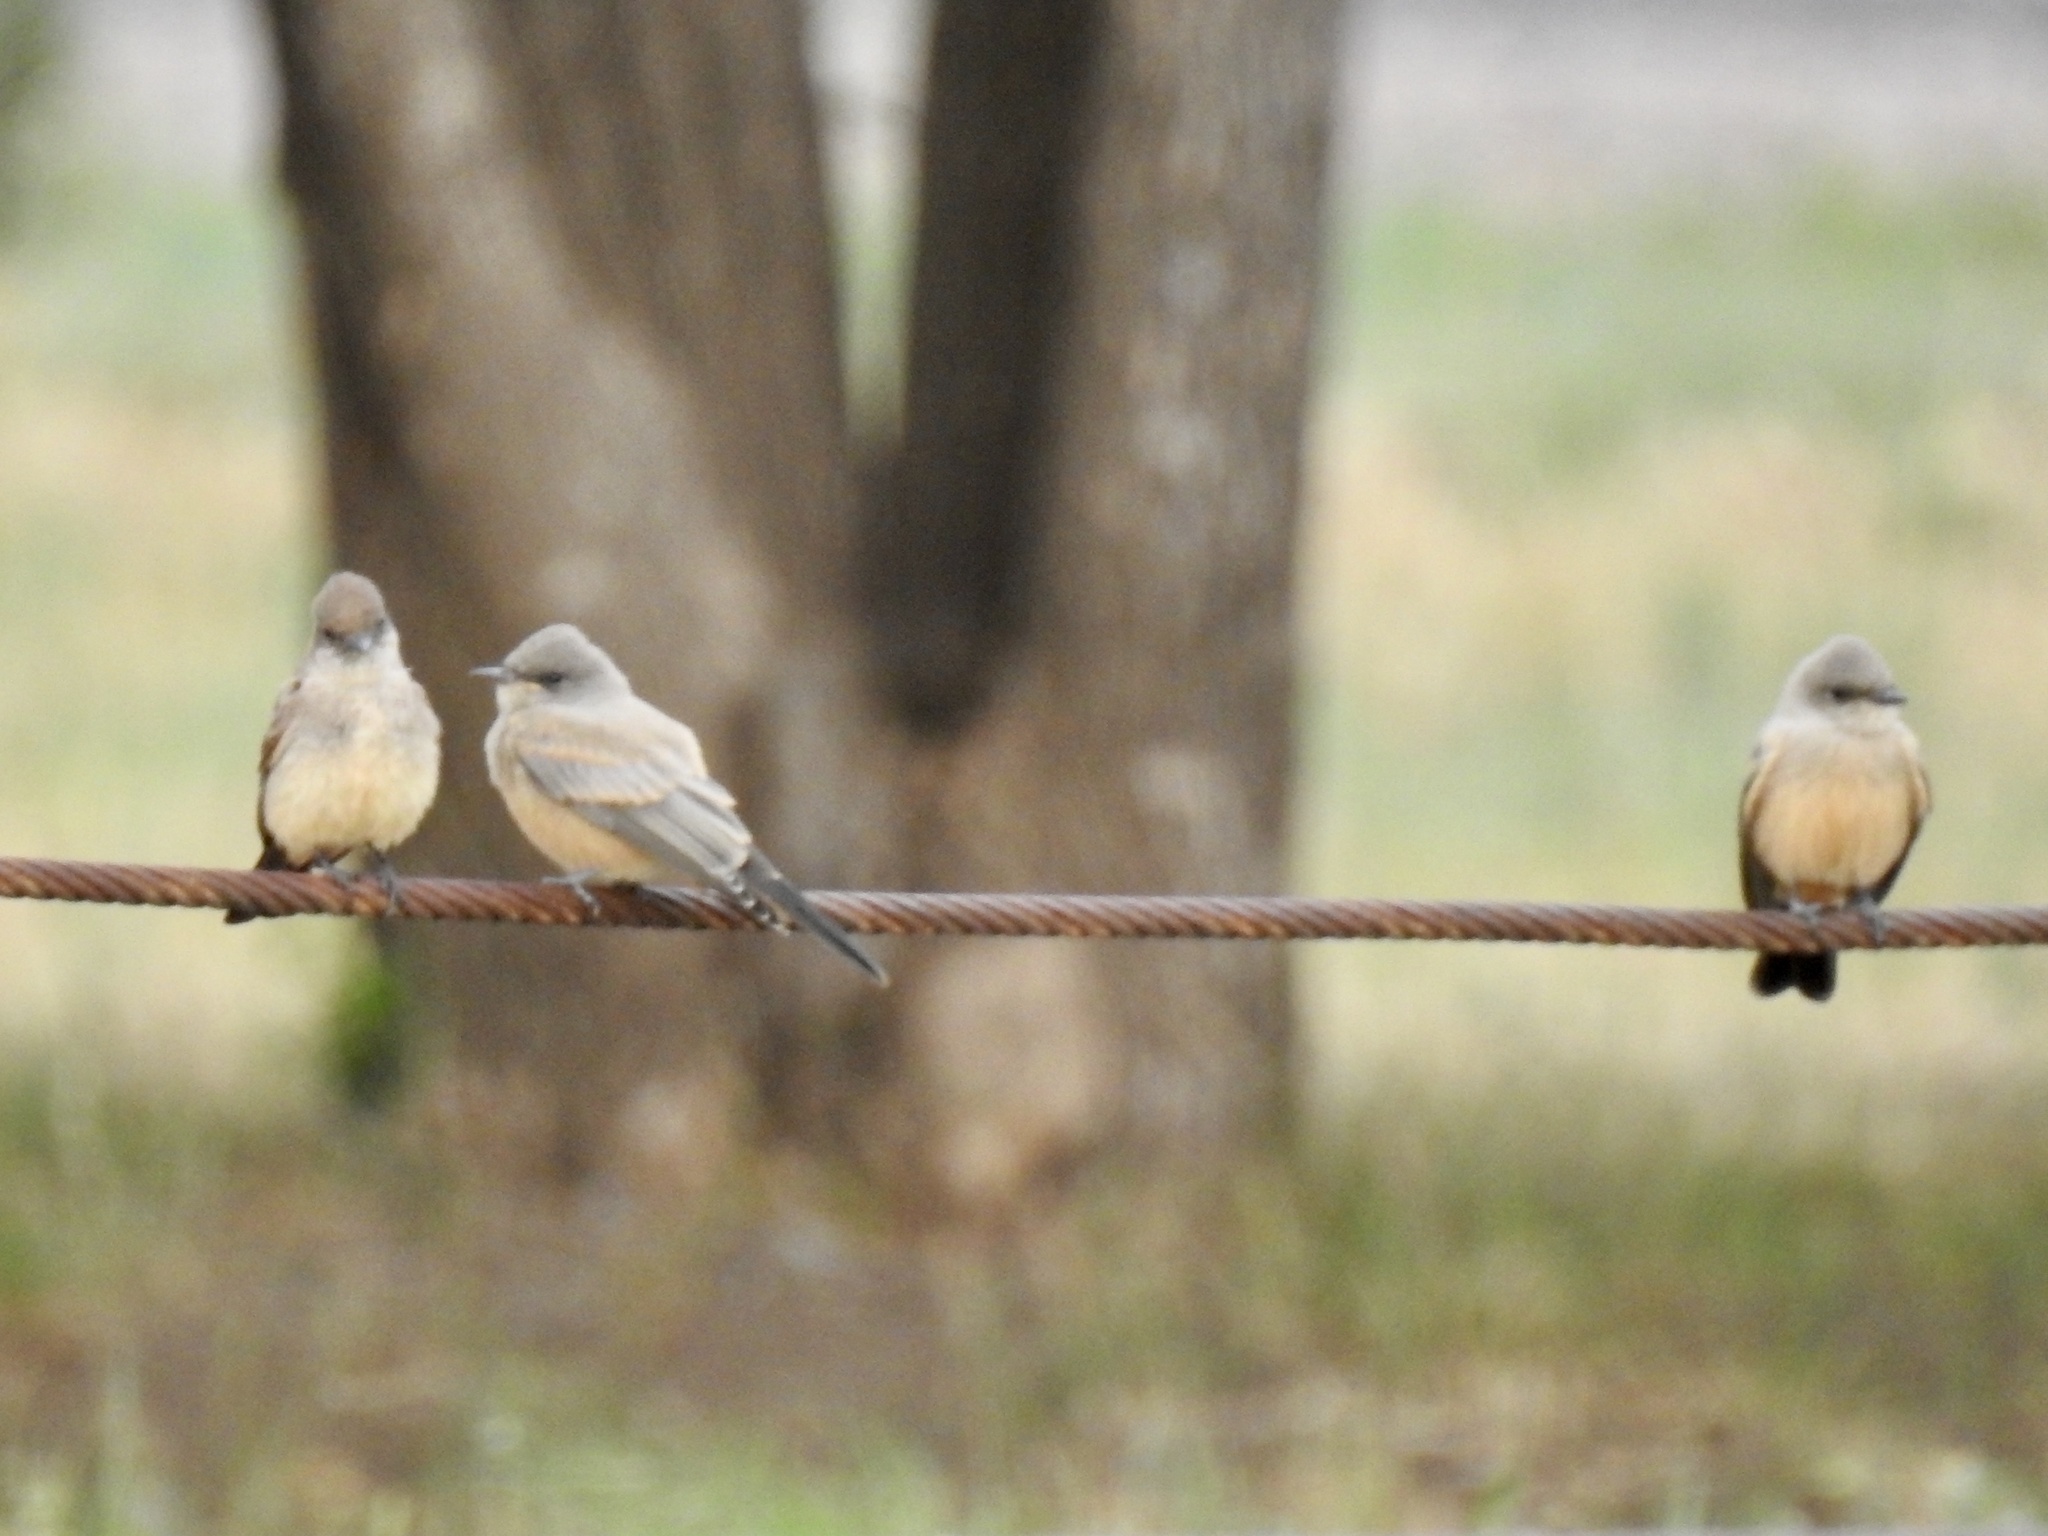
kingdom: Animalia
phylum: Chordata
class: Aves
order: Passeriformes
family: Tyrannidae
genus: Sayornis
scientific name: Sayornis saya
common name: Say's phoebe
